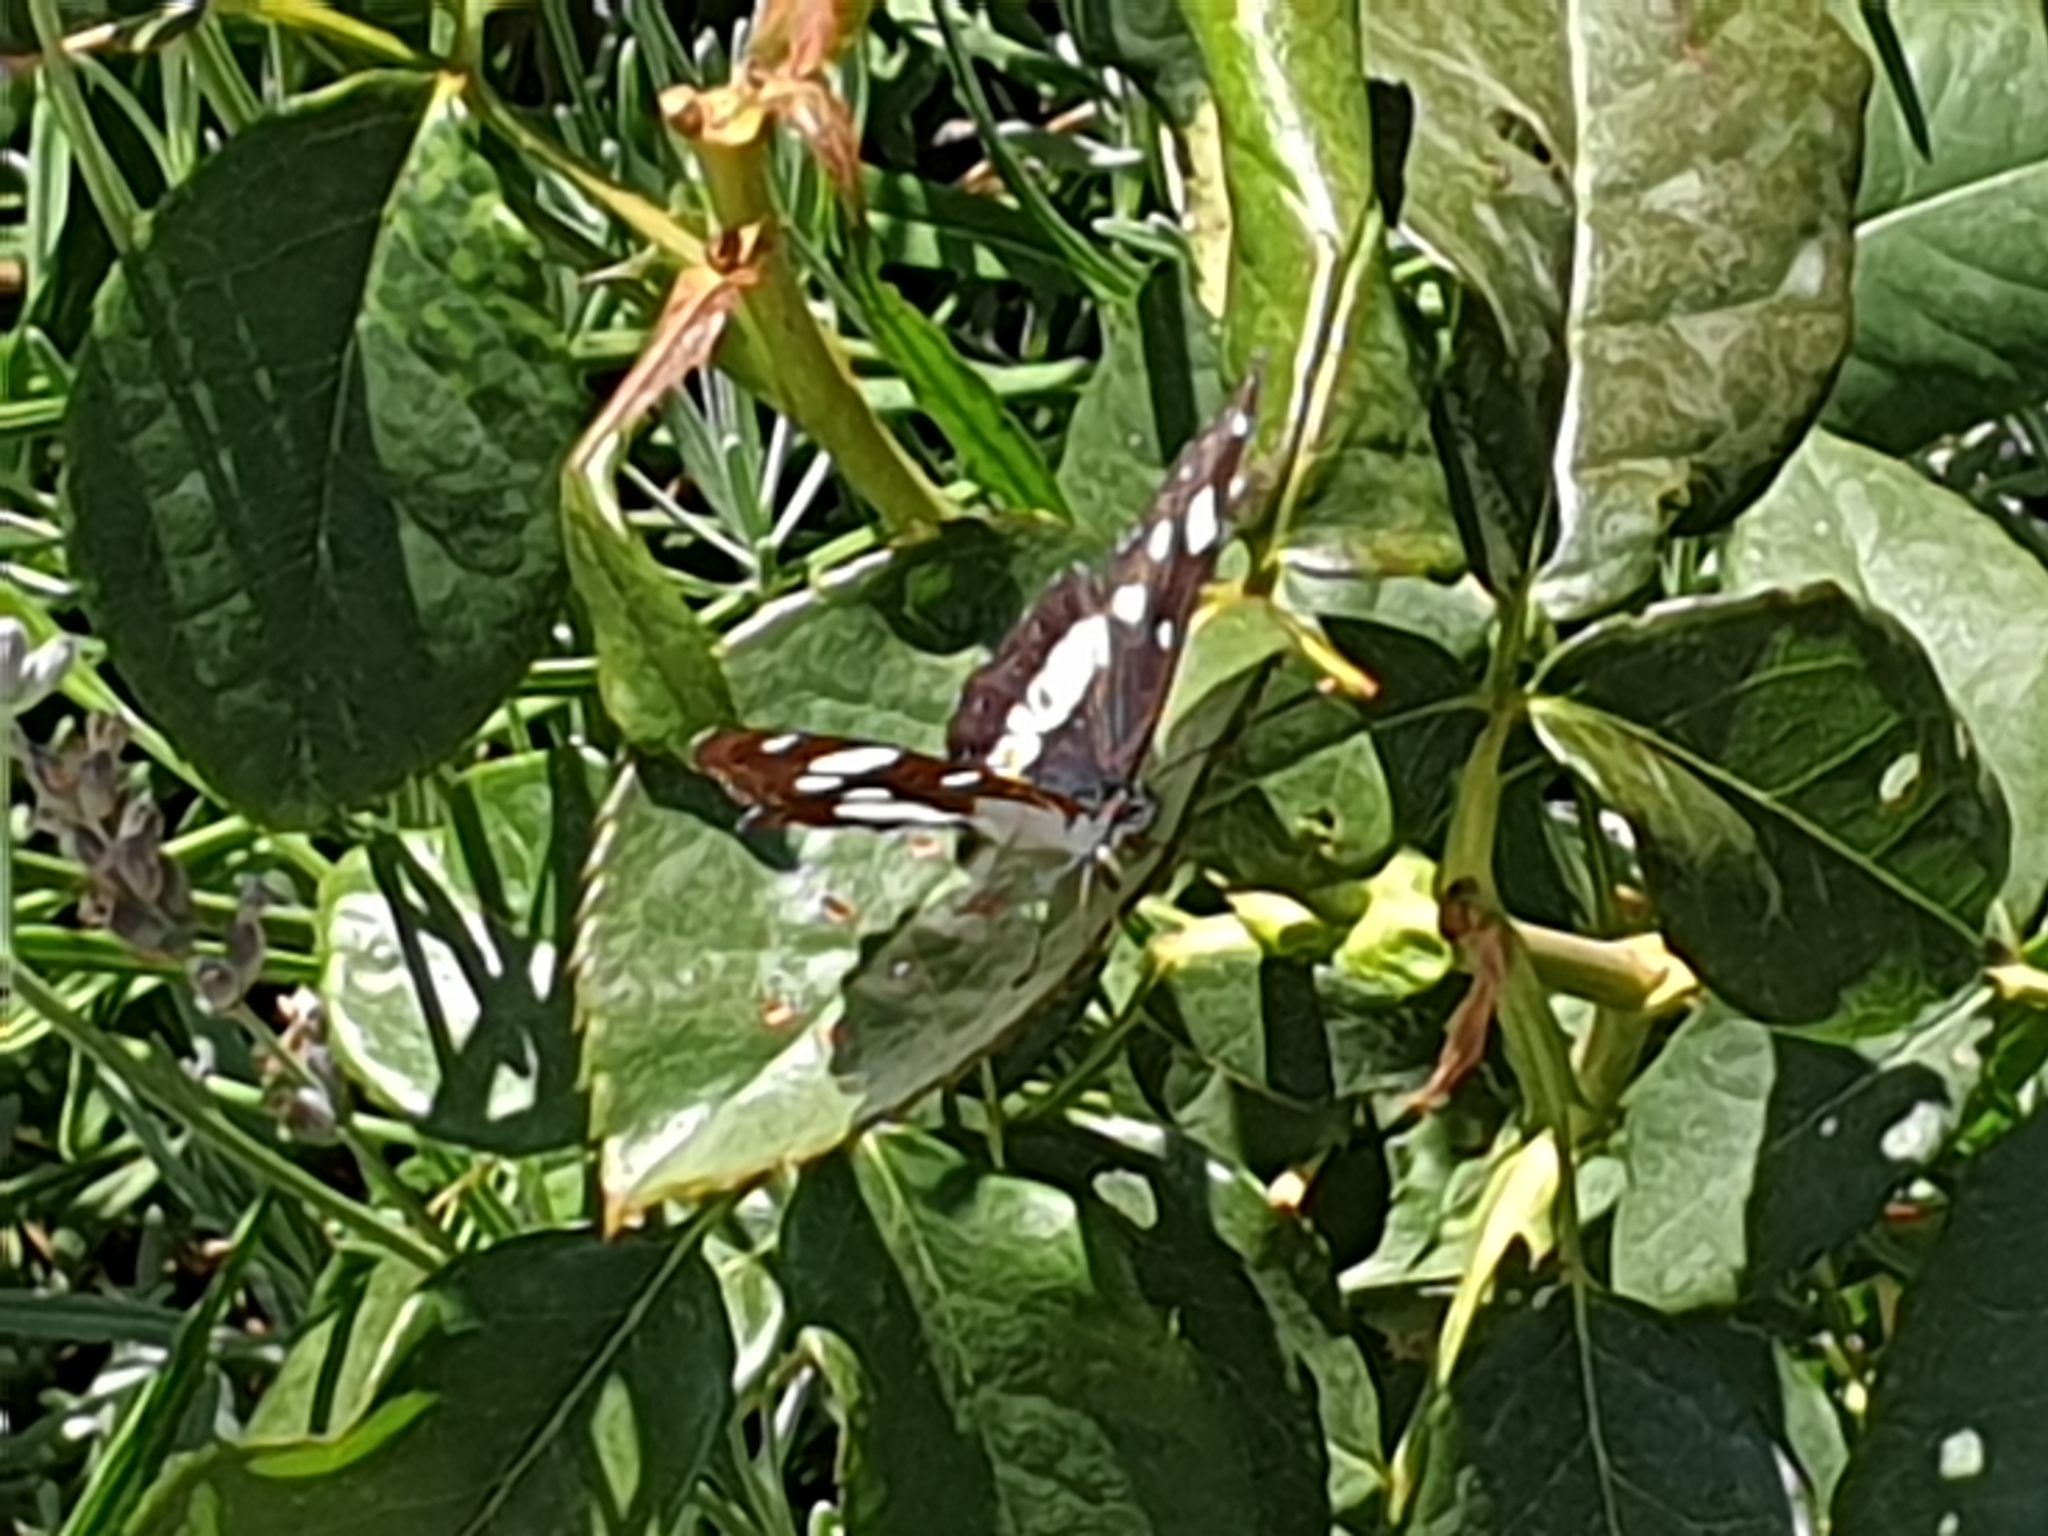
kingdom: Animalia
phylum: Arthropoda
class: Insecta
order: Lepidoptera
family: Nymphalidae
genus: Limenitis
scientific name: Limenitis reducta
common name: Southern white admiral
